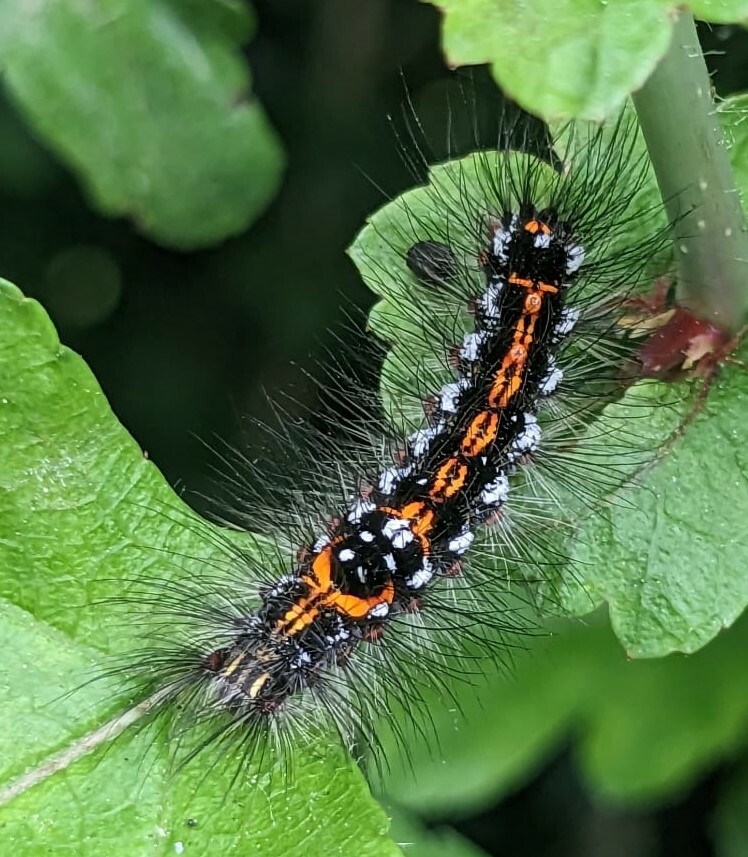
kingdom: Animalia
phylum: Arthropoda
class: Insecta
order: Lepidoptera
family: Erebidae
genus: Sphrageidus
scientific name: Sphrageidus similis
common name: Yellow-tail
